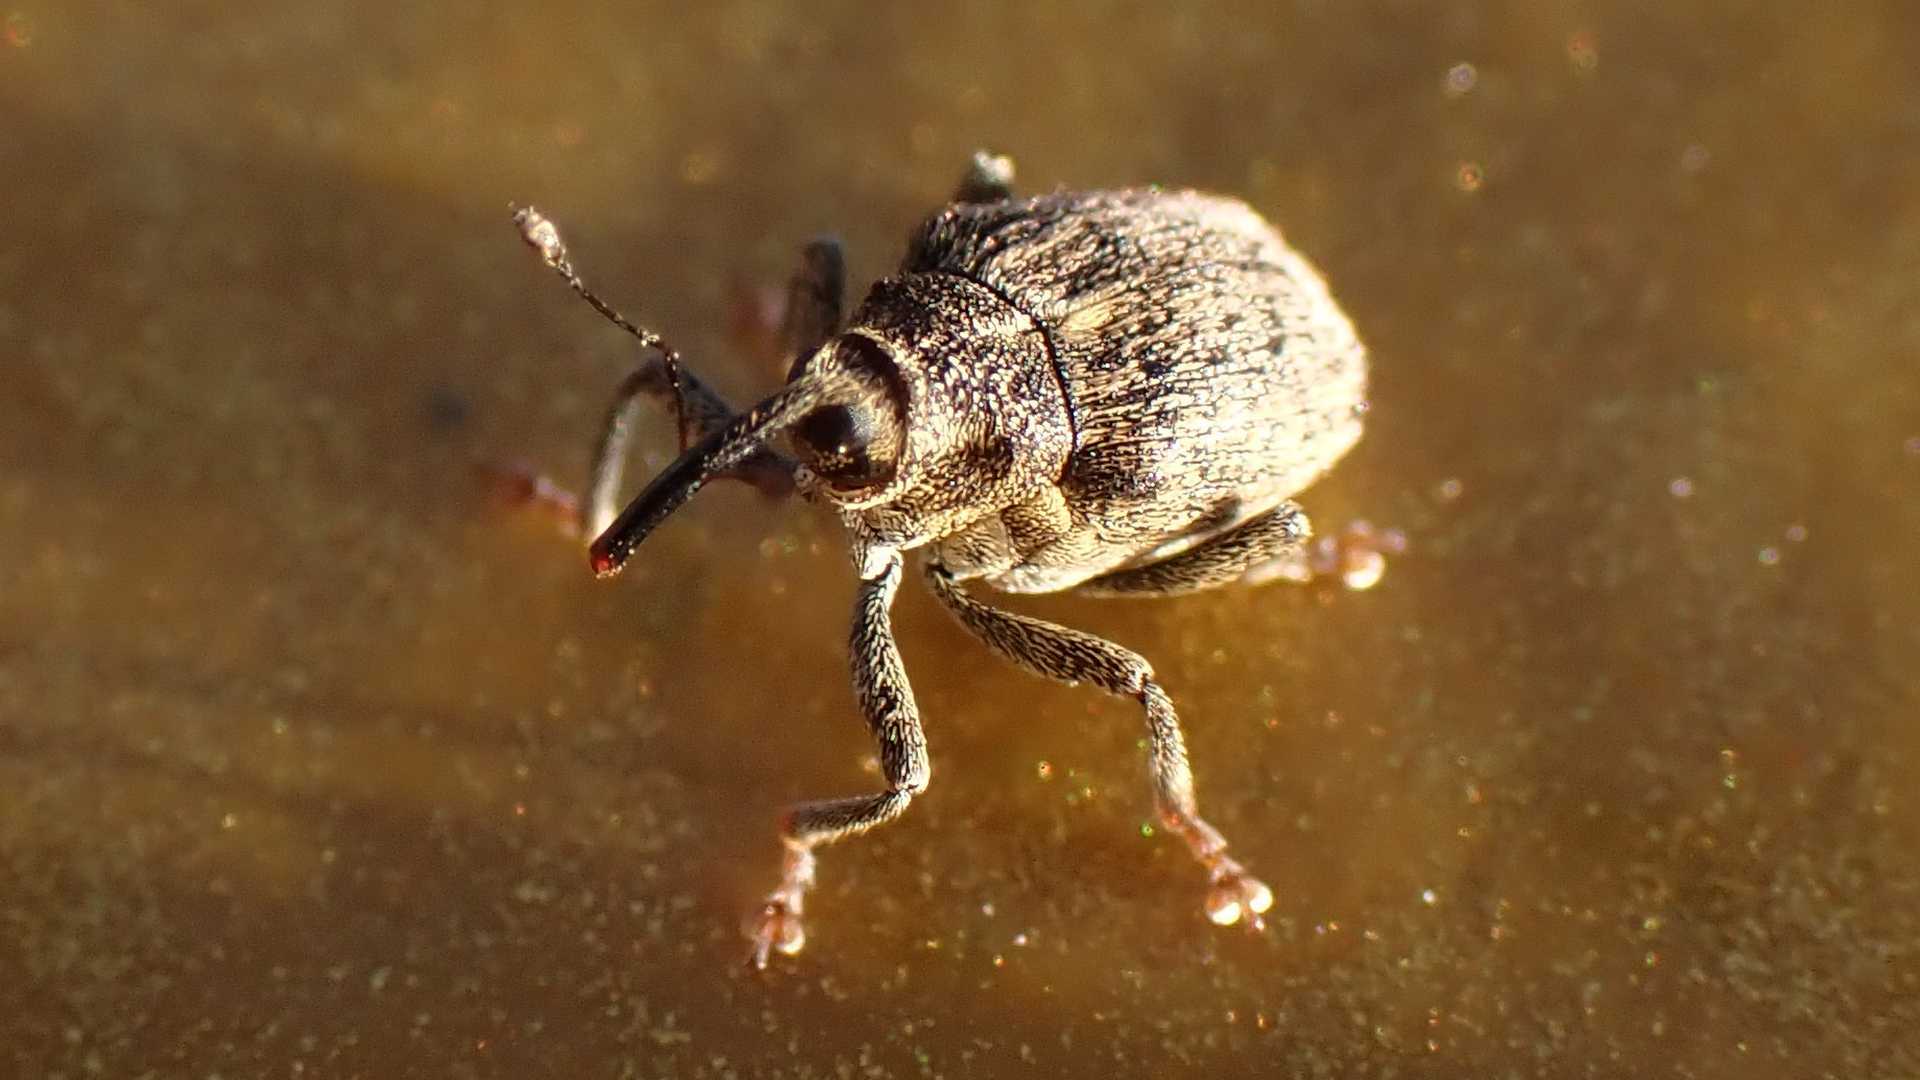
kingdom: Animalia
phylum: Arthropoda
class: Insecta
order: Coleoptera
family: Curculionidae
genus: Ceutorhynchus
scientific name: Ceutorhynchus pallidactylus
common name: Cabbage stem weavil
